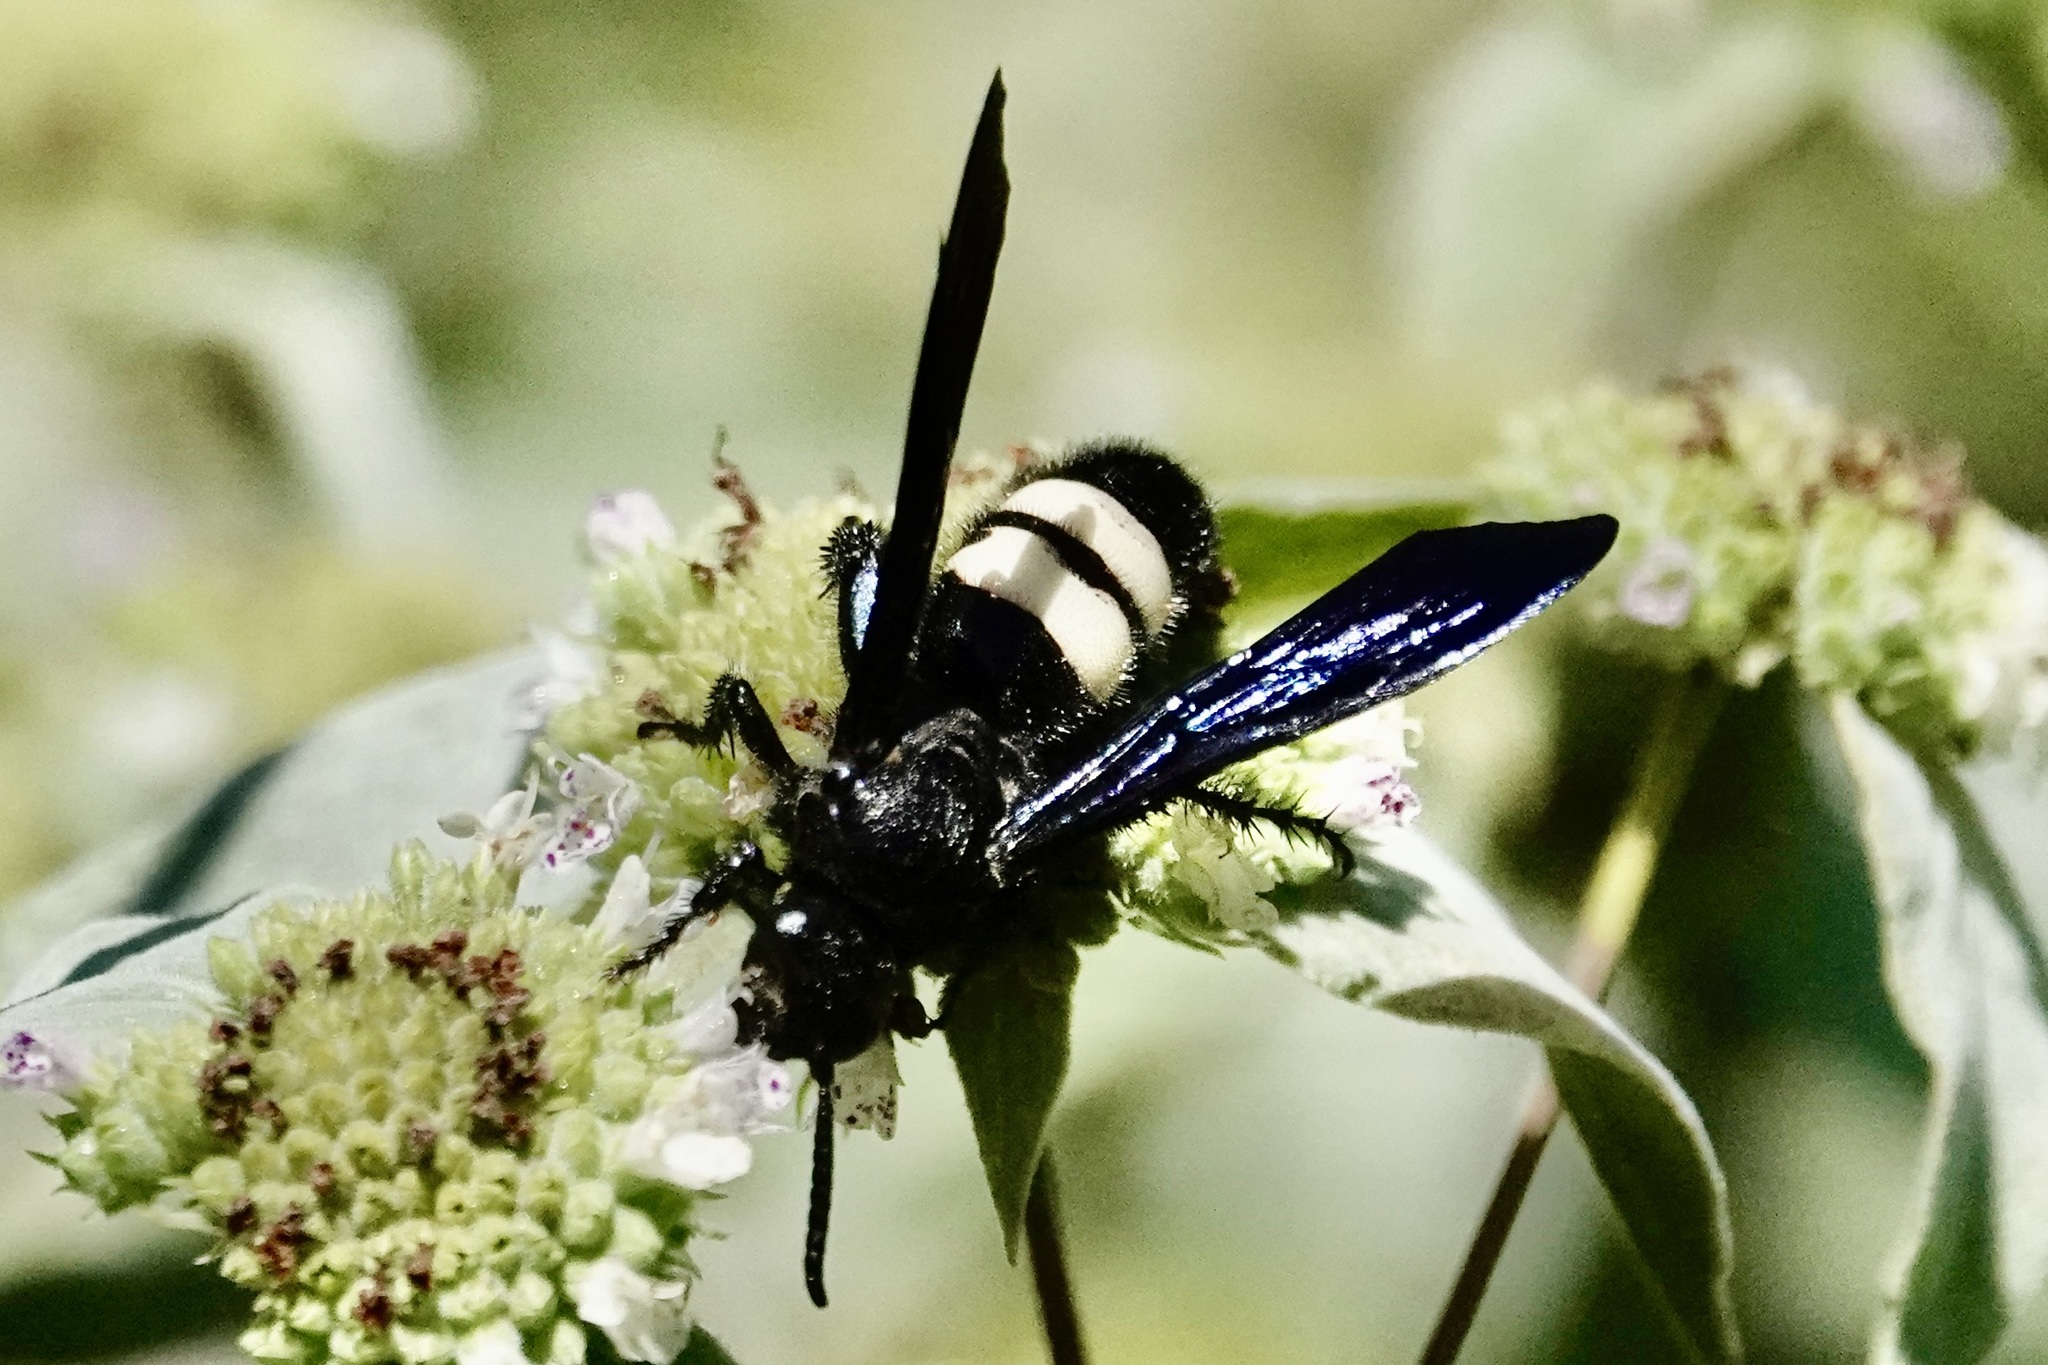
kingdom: Animalia
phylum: Arthropoda
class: Insecta
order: Hymenoptera
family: Scoliidae
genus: Scolia
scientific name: Scolia bicincta
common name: Double-banded scoliid wasp
